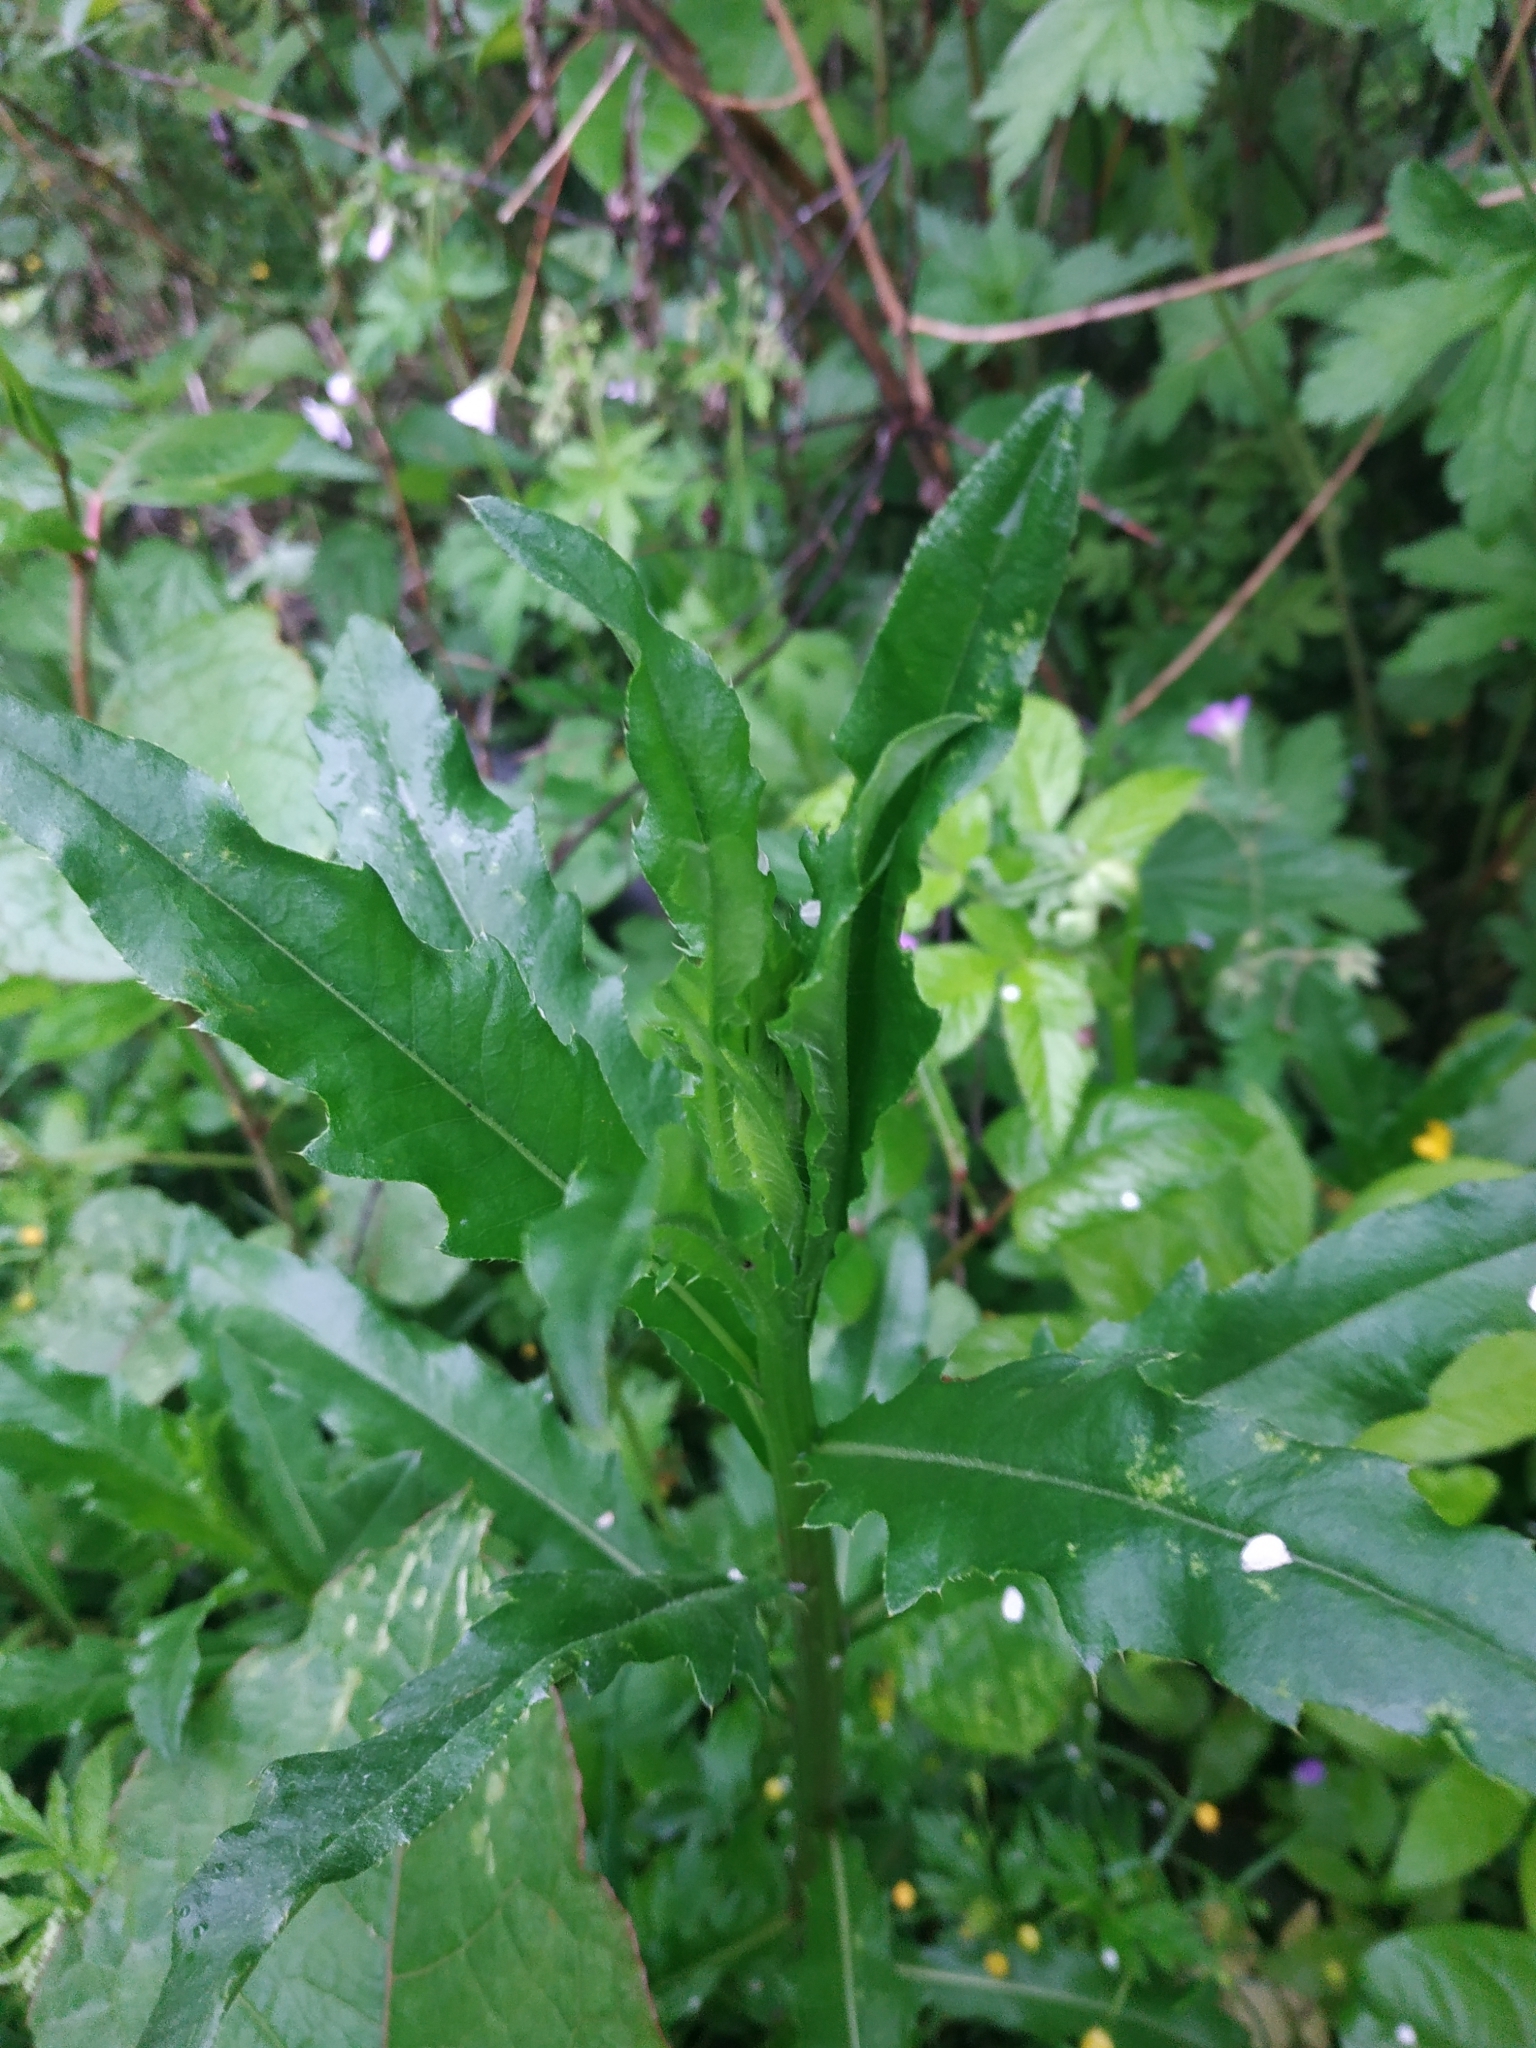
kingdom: Plantae
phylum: Tracheophyta
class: Magnoliopsida
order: Asterales
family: Asteraceae
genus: Cirsium
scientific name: Cirsium arvense
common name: Creeping thistle
